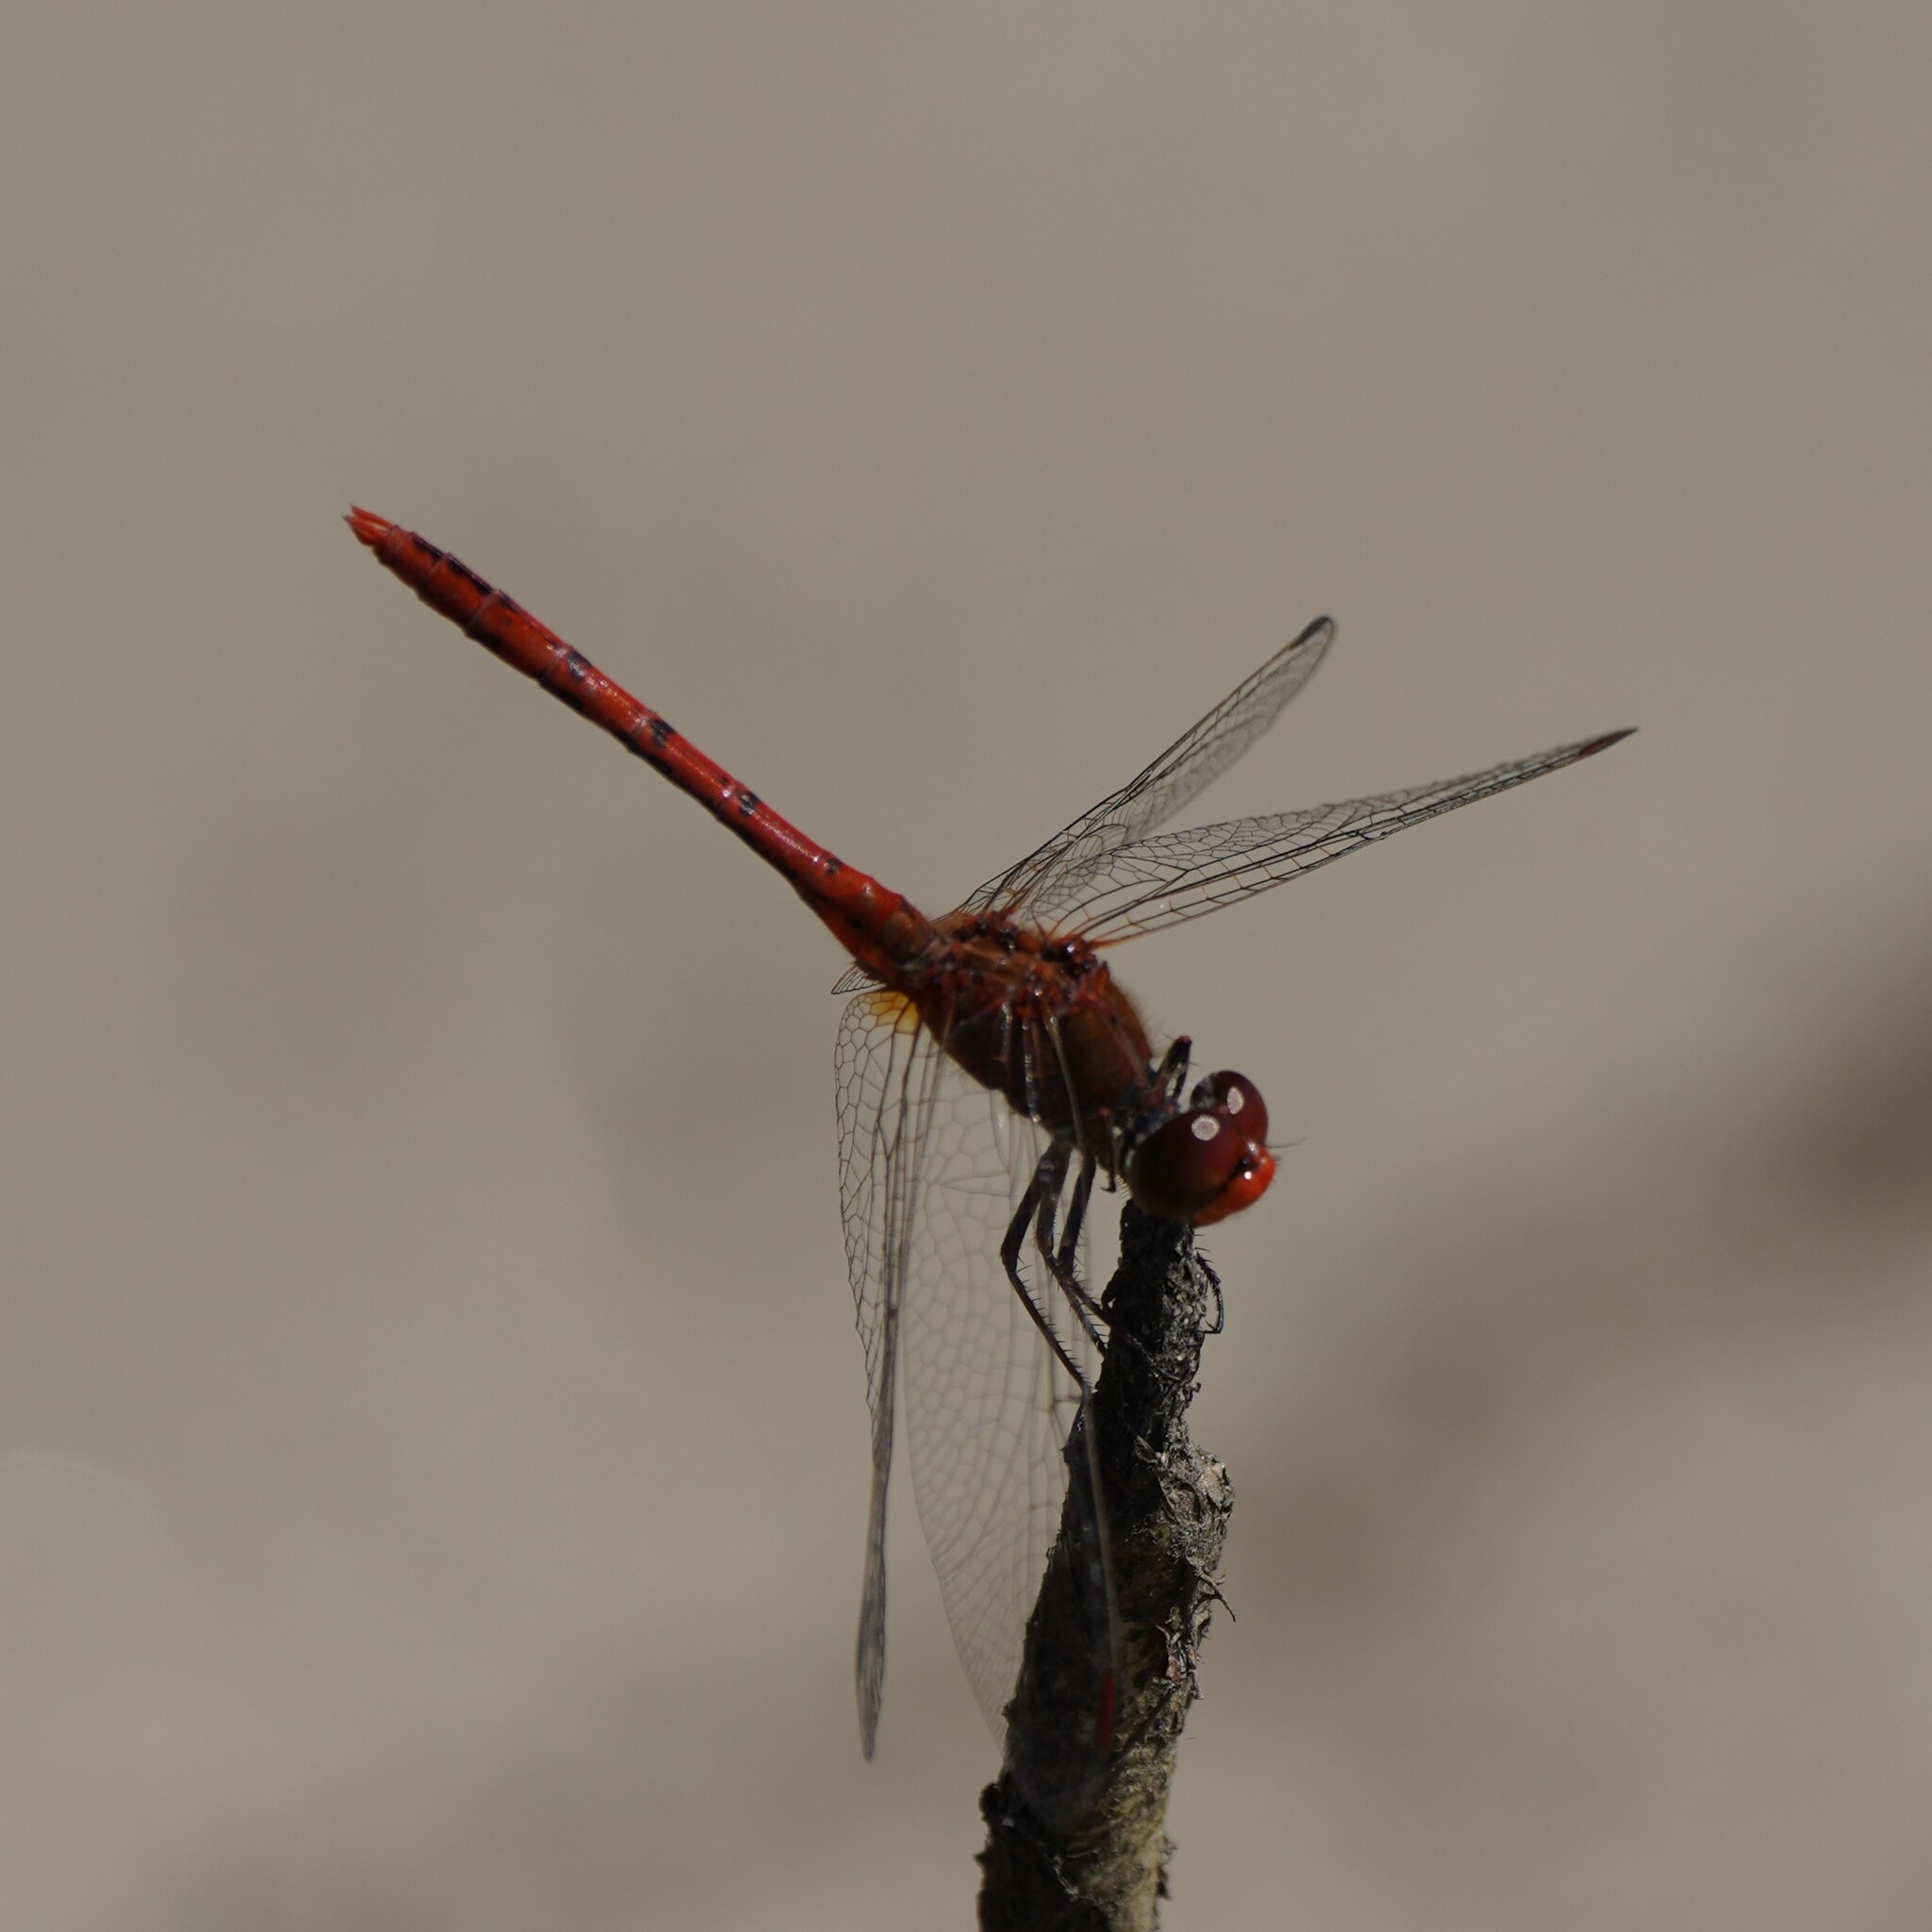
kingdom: Animalia
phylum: Arthropoda
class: Insecta
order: Odonata
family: Libellulidae
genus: Diplacodes
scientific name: Diplacodes bipunctata
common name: Red percher dragonfly
